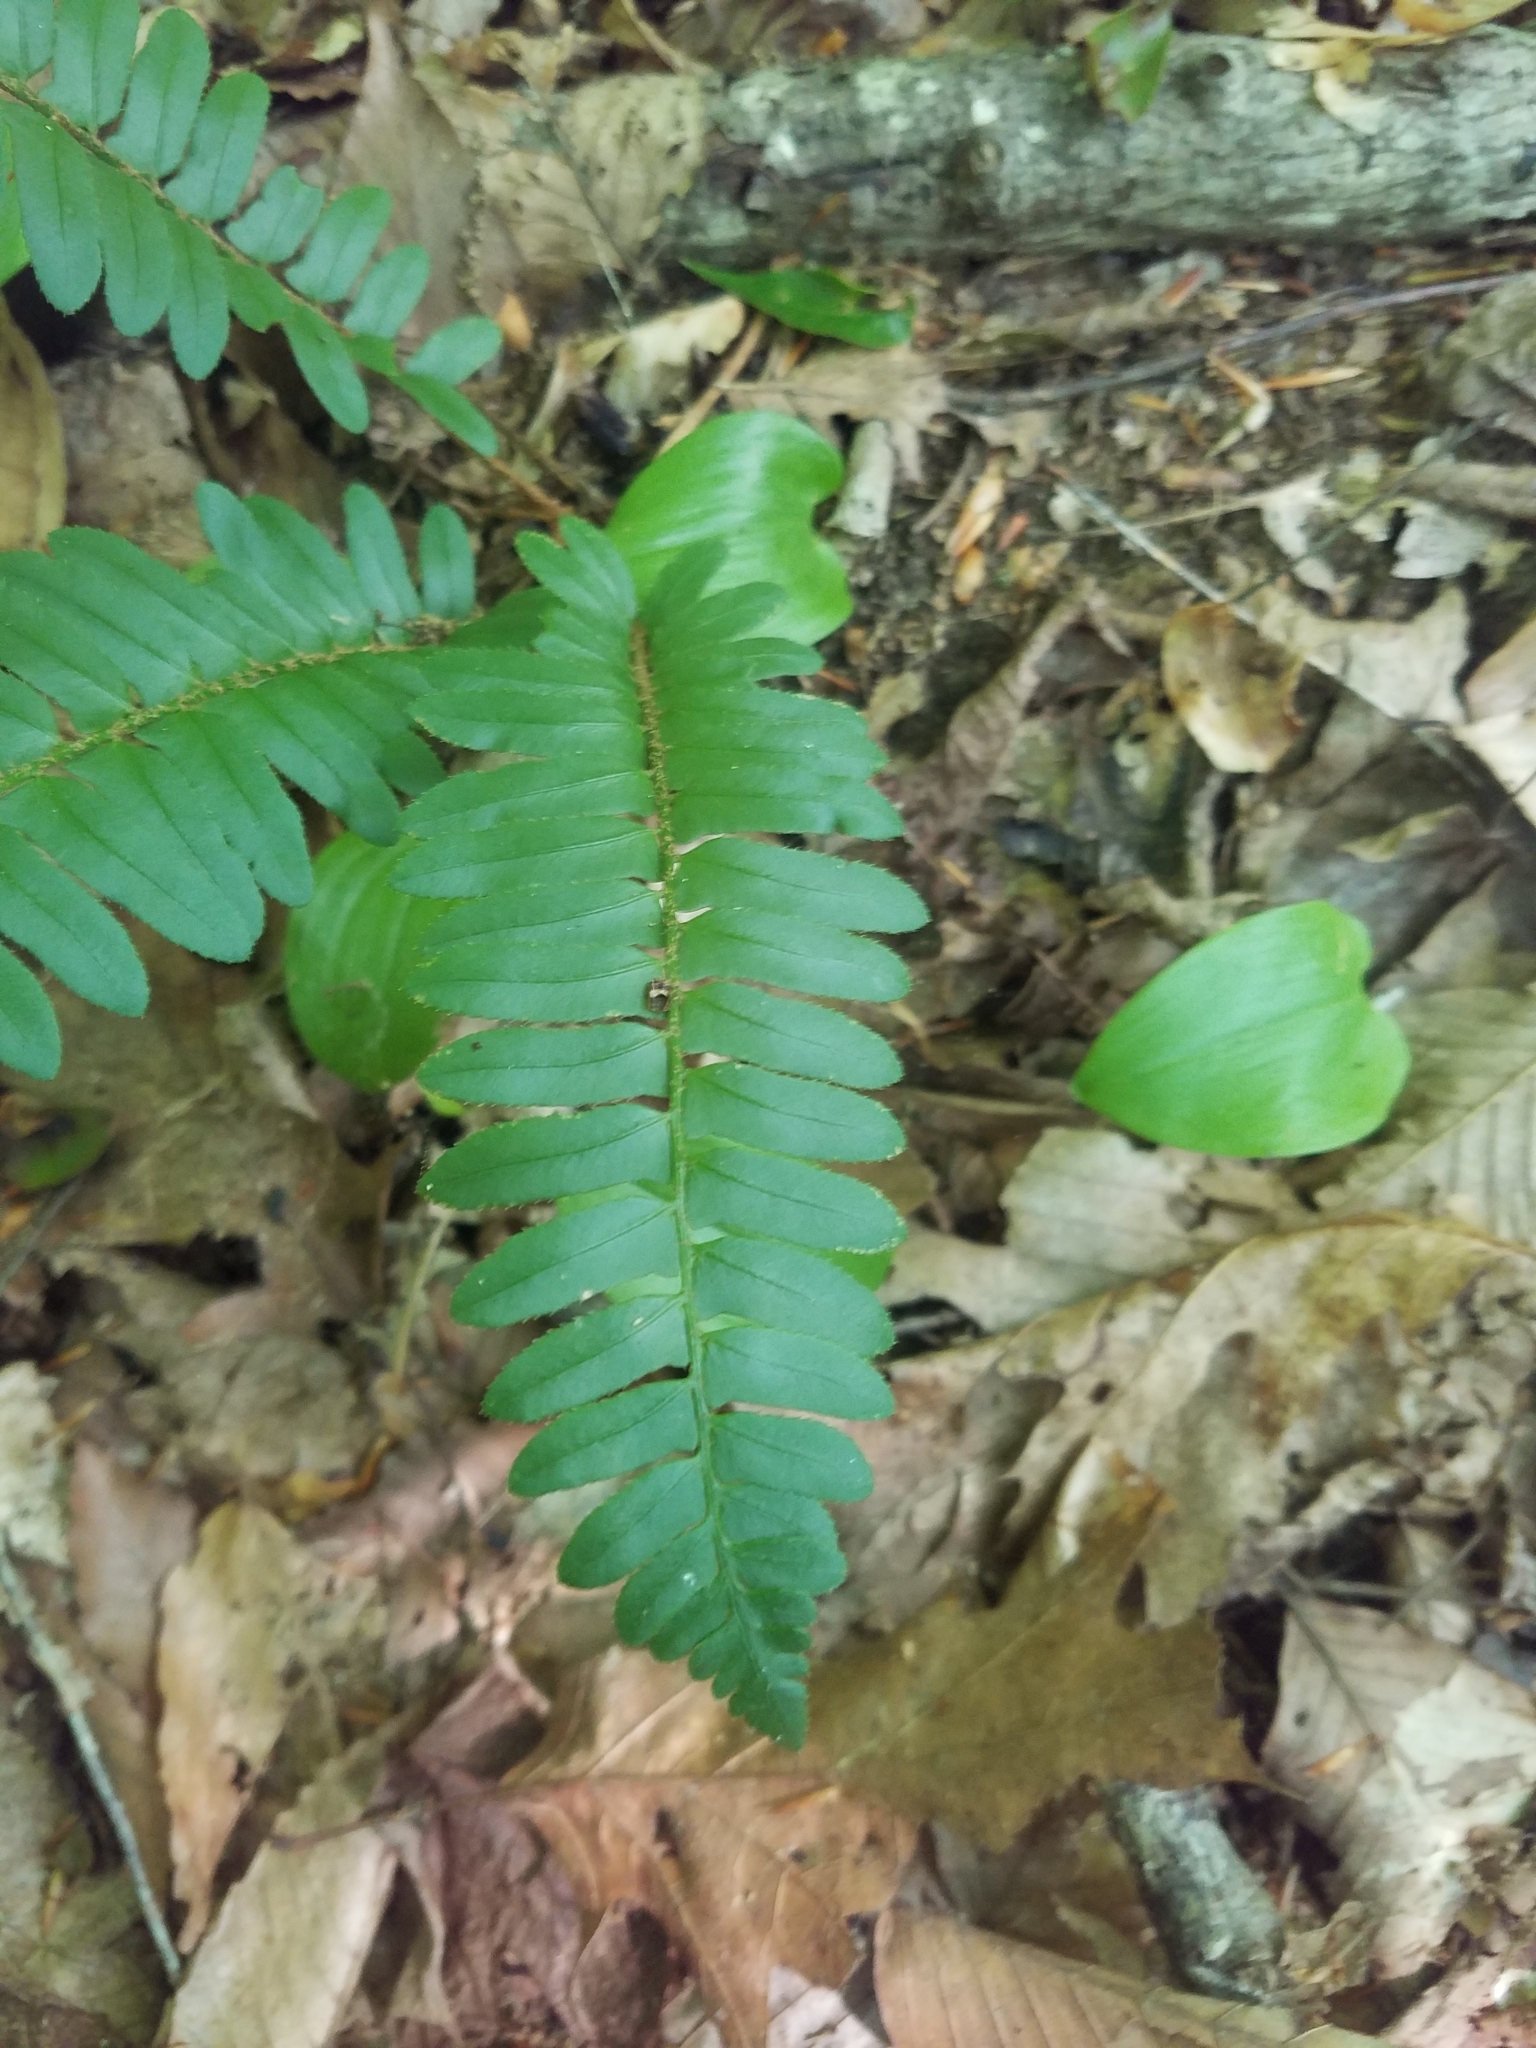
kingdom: Plantae
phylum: Tracheophyta
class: Polypodiopsida
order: Polypodiales
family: Dryopteridaceae
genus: Polystichum
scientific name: Polystichum acrostichoides
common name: Christmas fern
